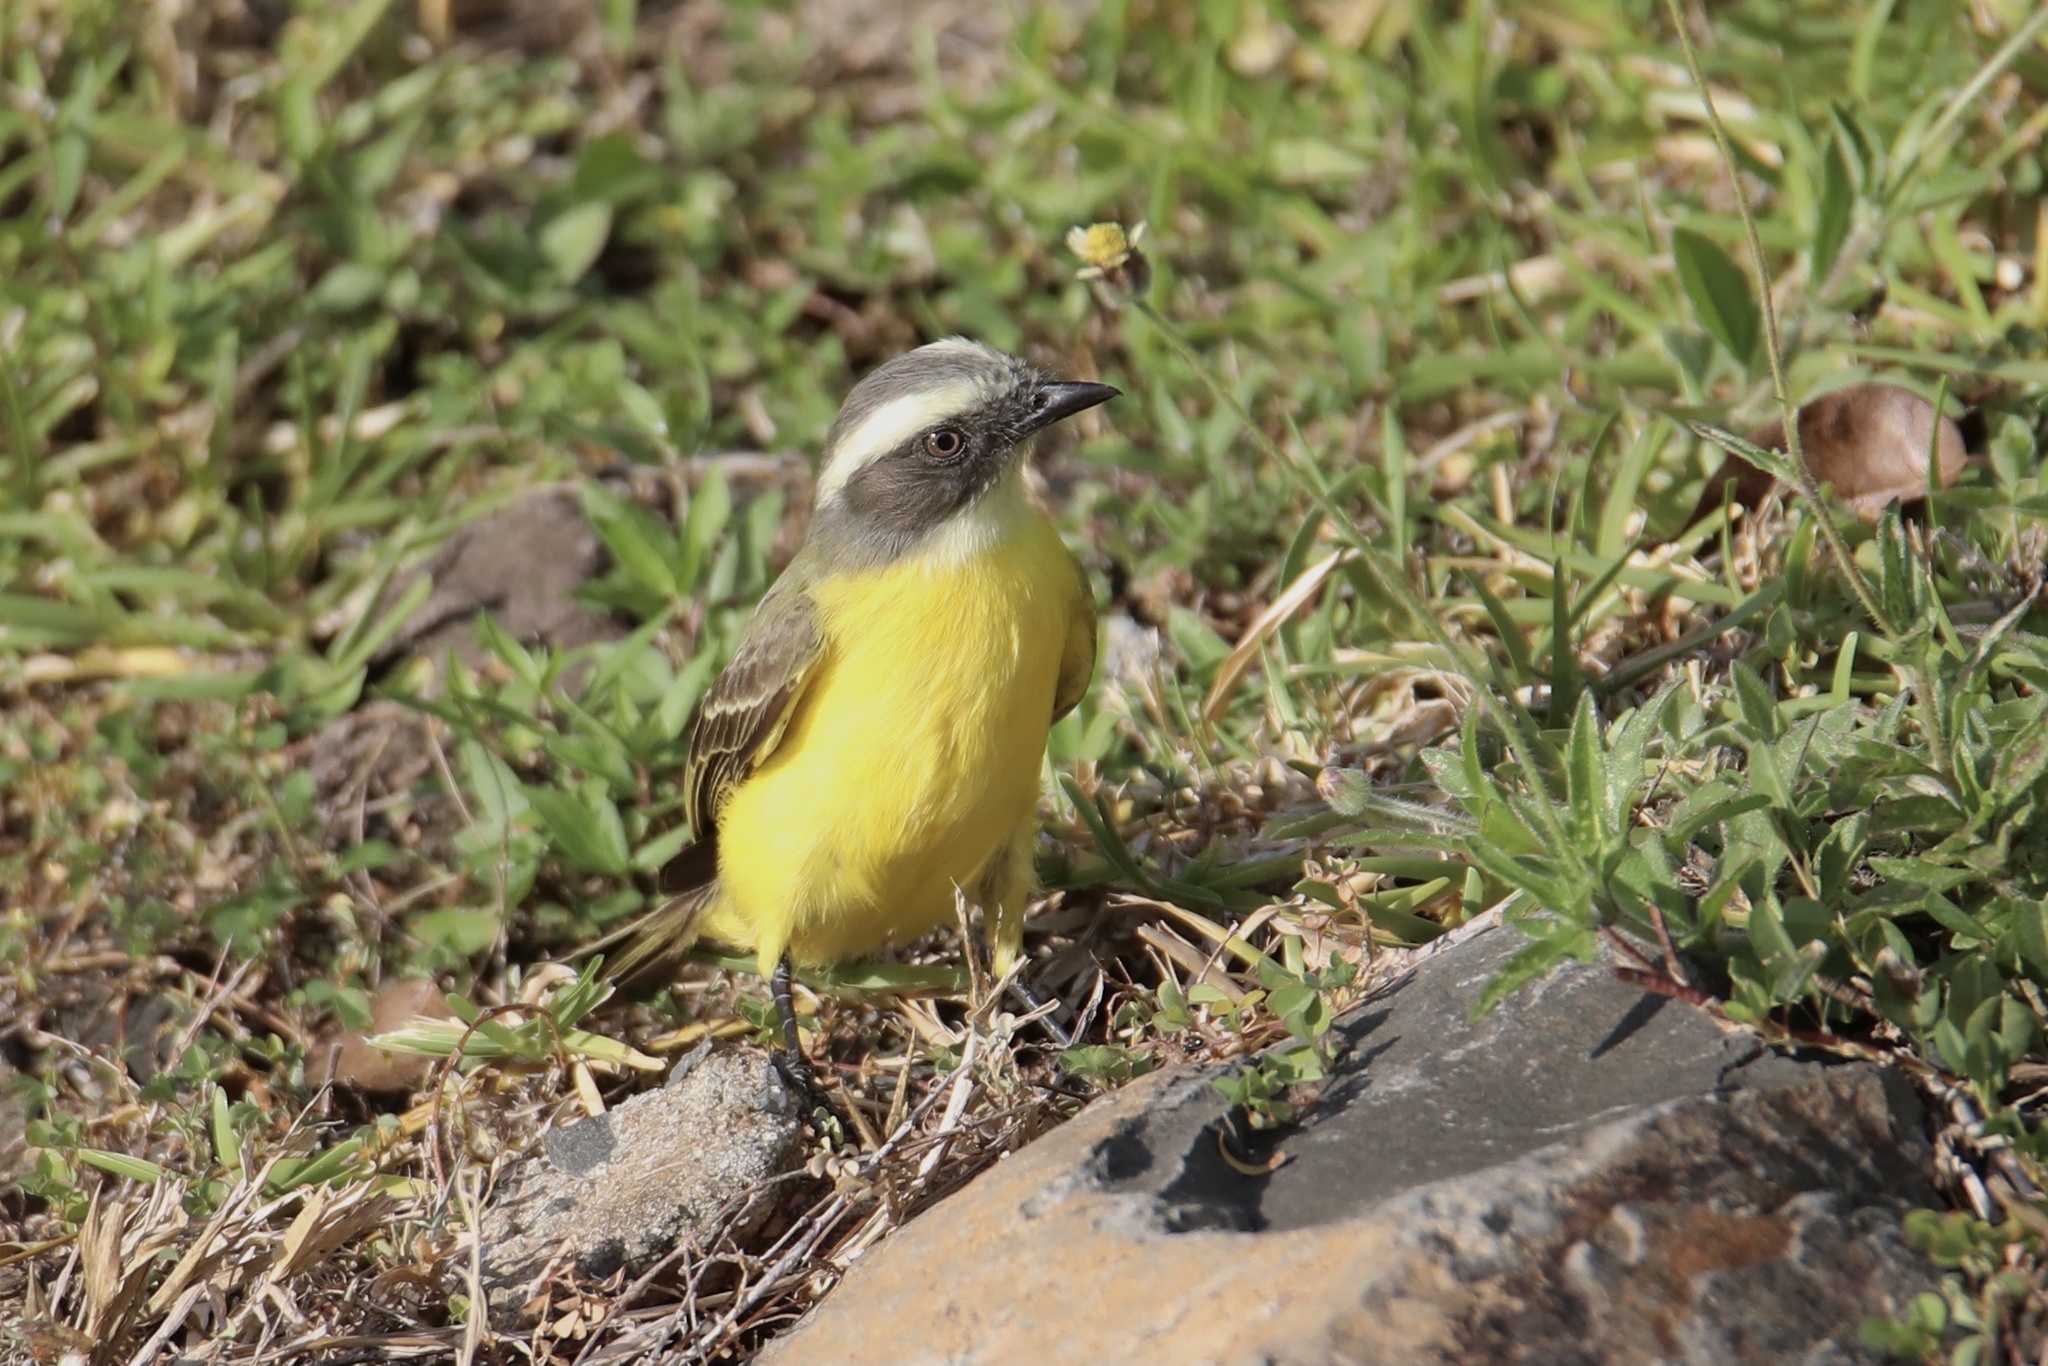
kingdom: Animalia
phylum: Chordata
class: Aves
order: Passeriformes
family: Tyrannidae
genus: Myiozetetes
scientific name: Myiozetetes similis
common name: Social flycatcher
